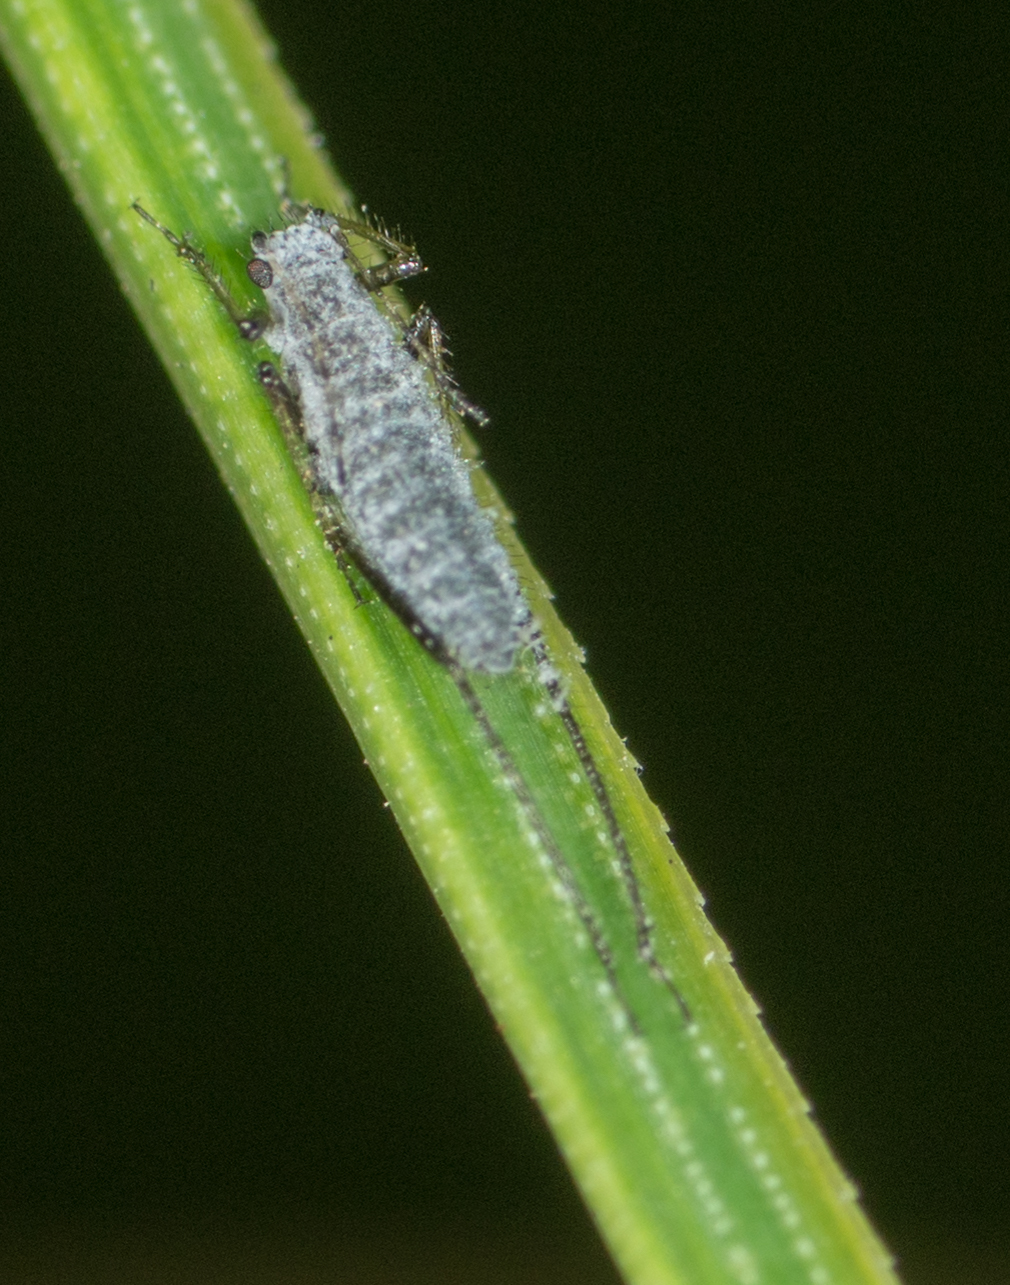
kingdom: Animalia
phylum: Arthropoda
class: Insecta
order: Hemiptera
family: Aphididae
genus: Eulachnus
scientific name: Eulachnus rileyi
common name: Active gray pine needle aphid
